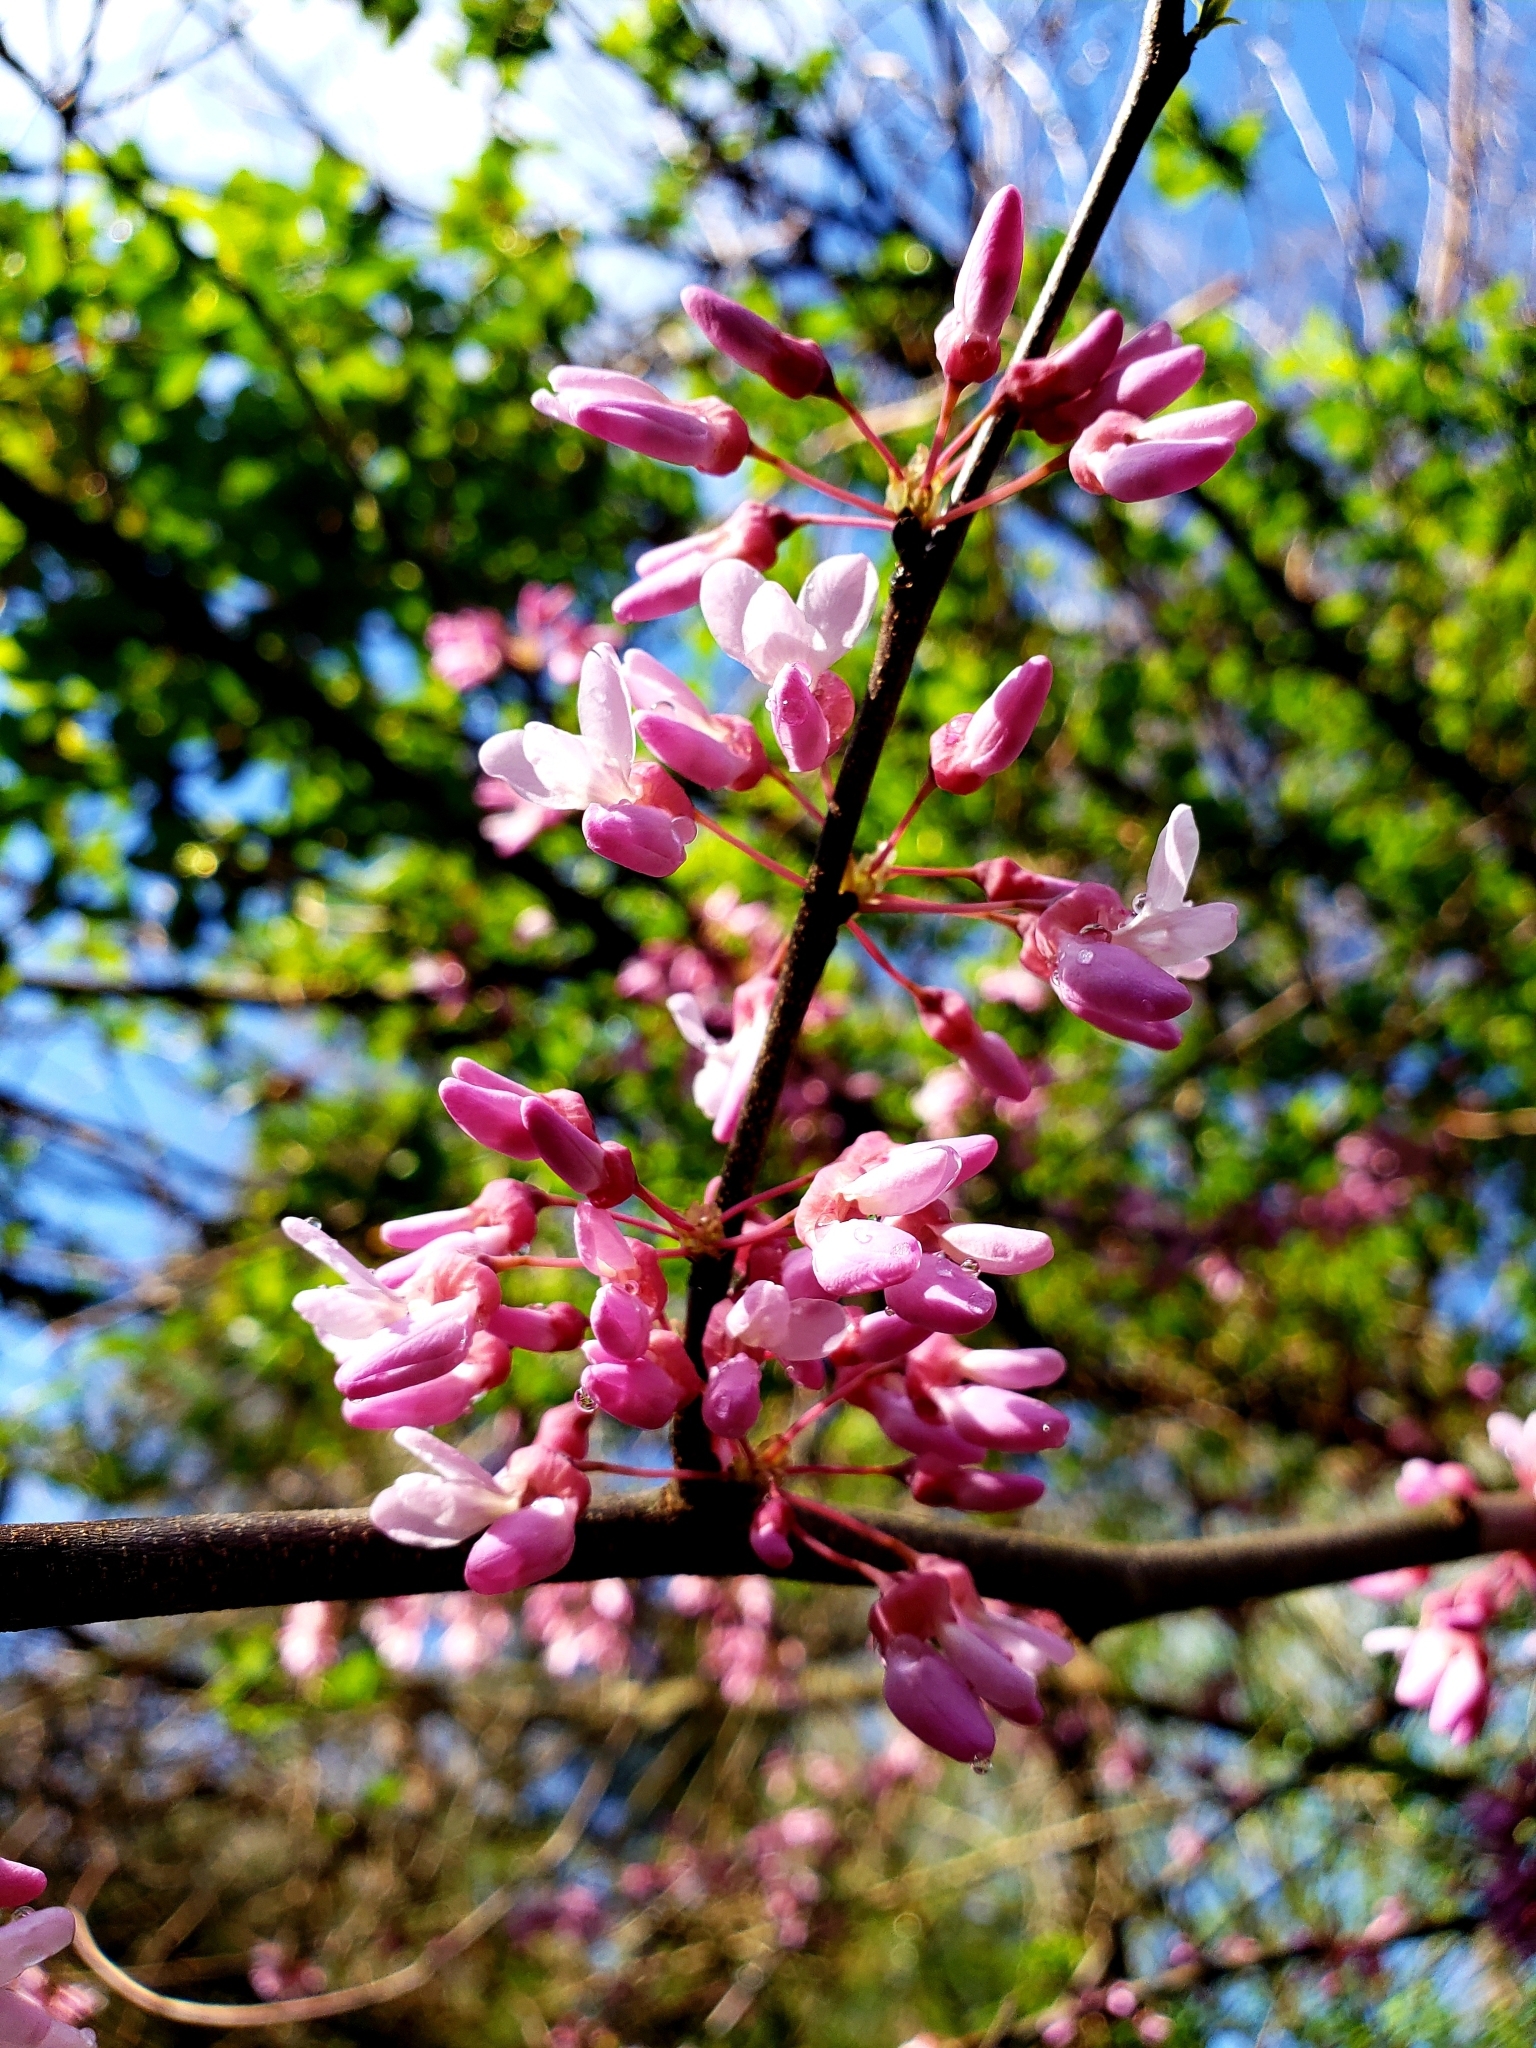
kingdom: Plantae
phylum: Tracheophyta
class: Magnoliopsida
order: Fabales
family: Fabaceae
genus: Cercis
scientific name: Cercis canadensis
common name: Eastern redbud
